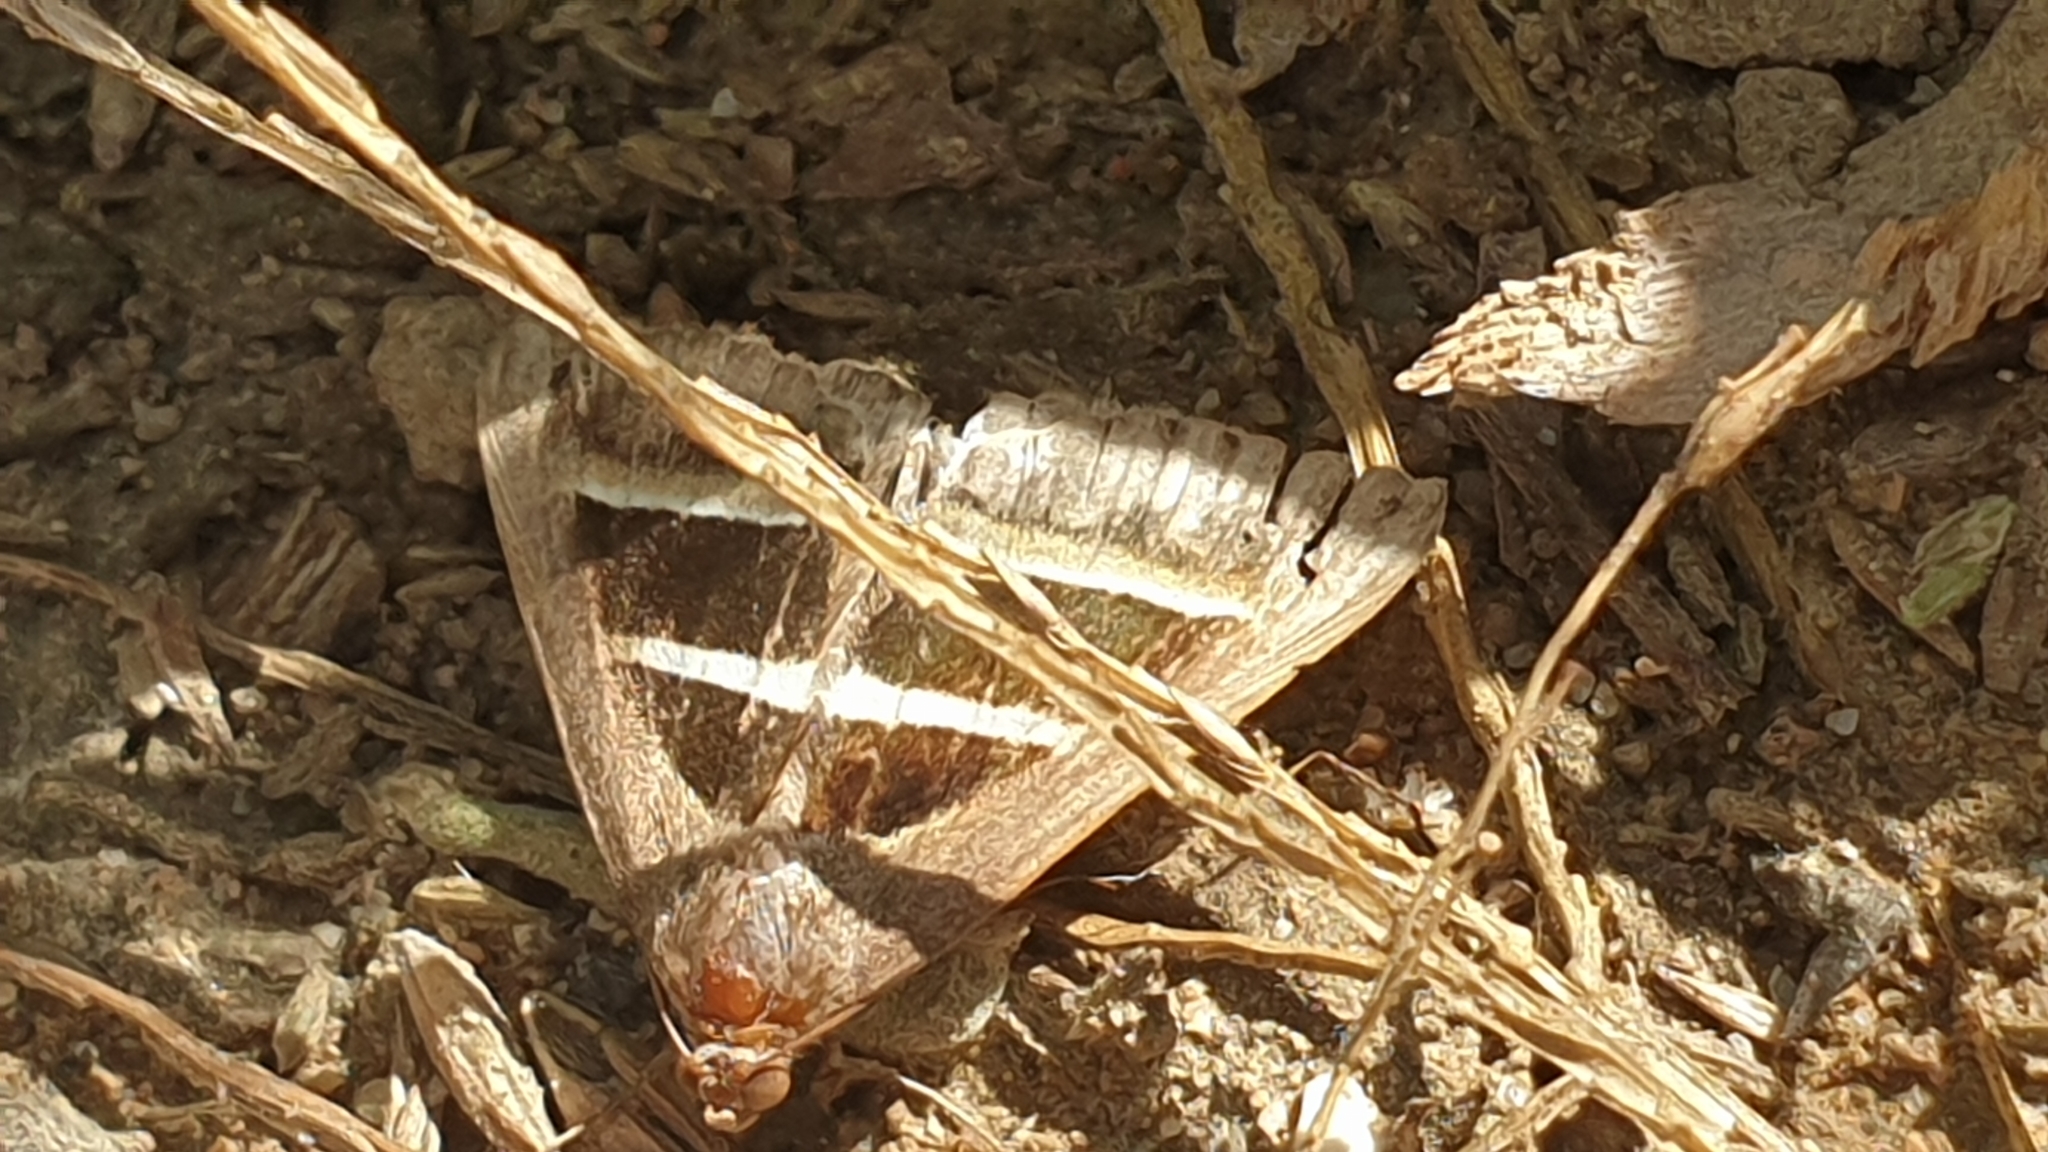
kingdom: Animalia
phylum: Arthropoda
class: Insecta
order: Lepidoptera
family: Erebidae
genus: Grammodes
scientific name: Grammodes bifasciata
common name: Parallel lines
